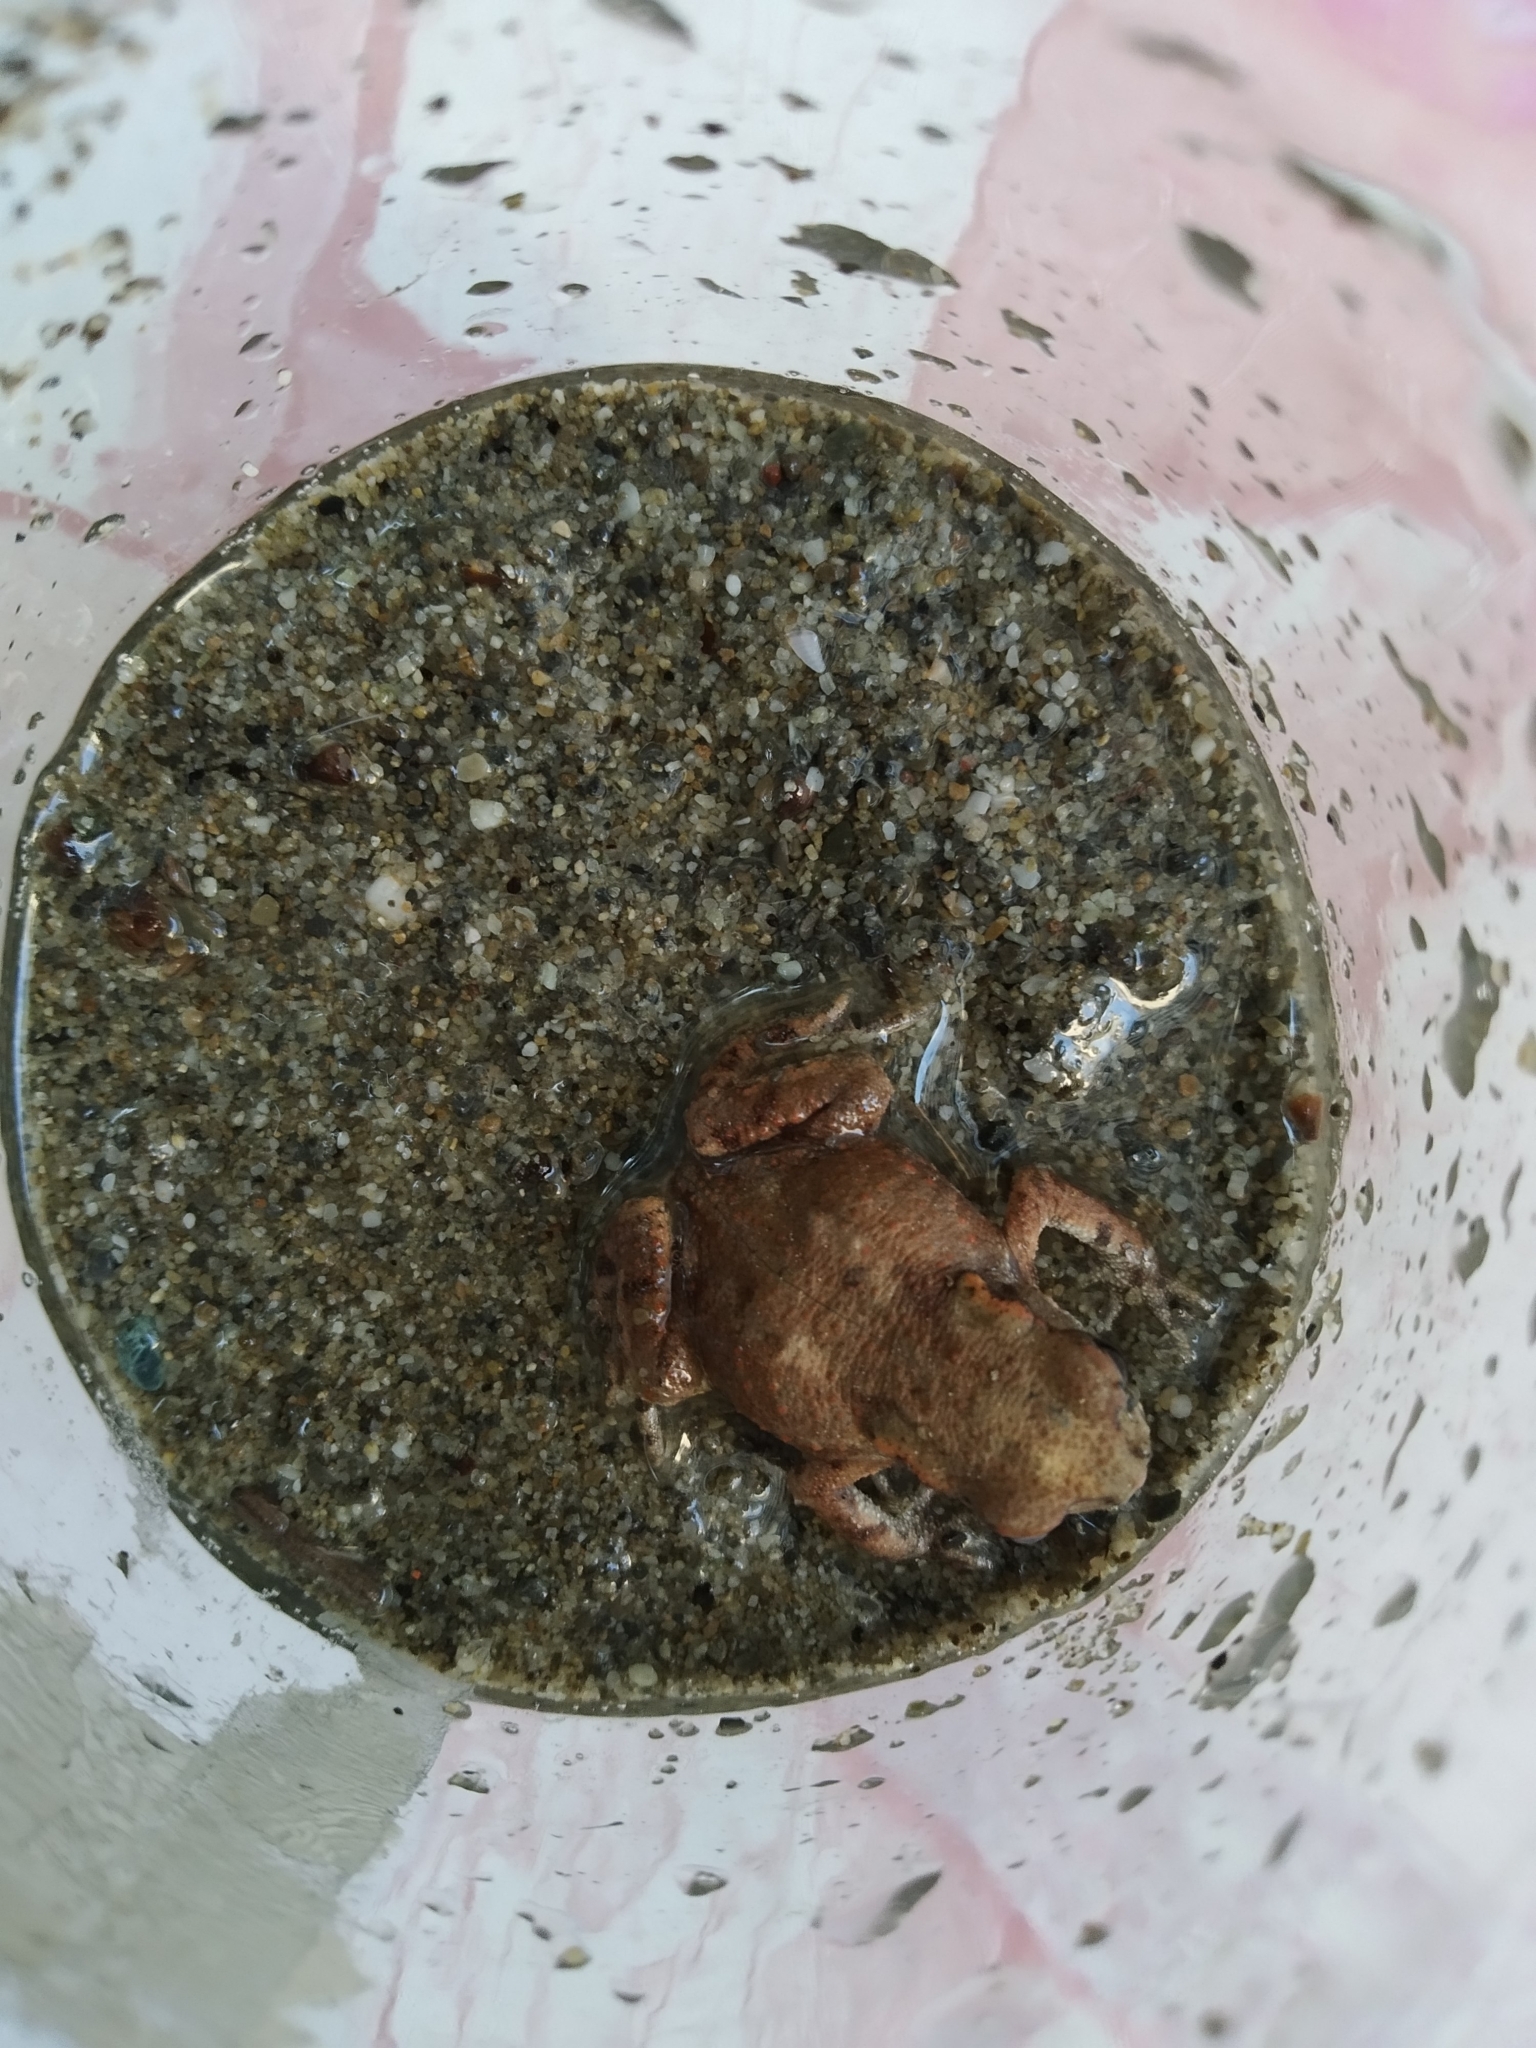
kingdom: Animalia
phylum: Chordata
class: Amphibia
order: Anura
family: Bufonidae
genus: Bufo
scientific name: Bufo bufo
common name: Common toad
